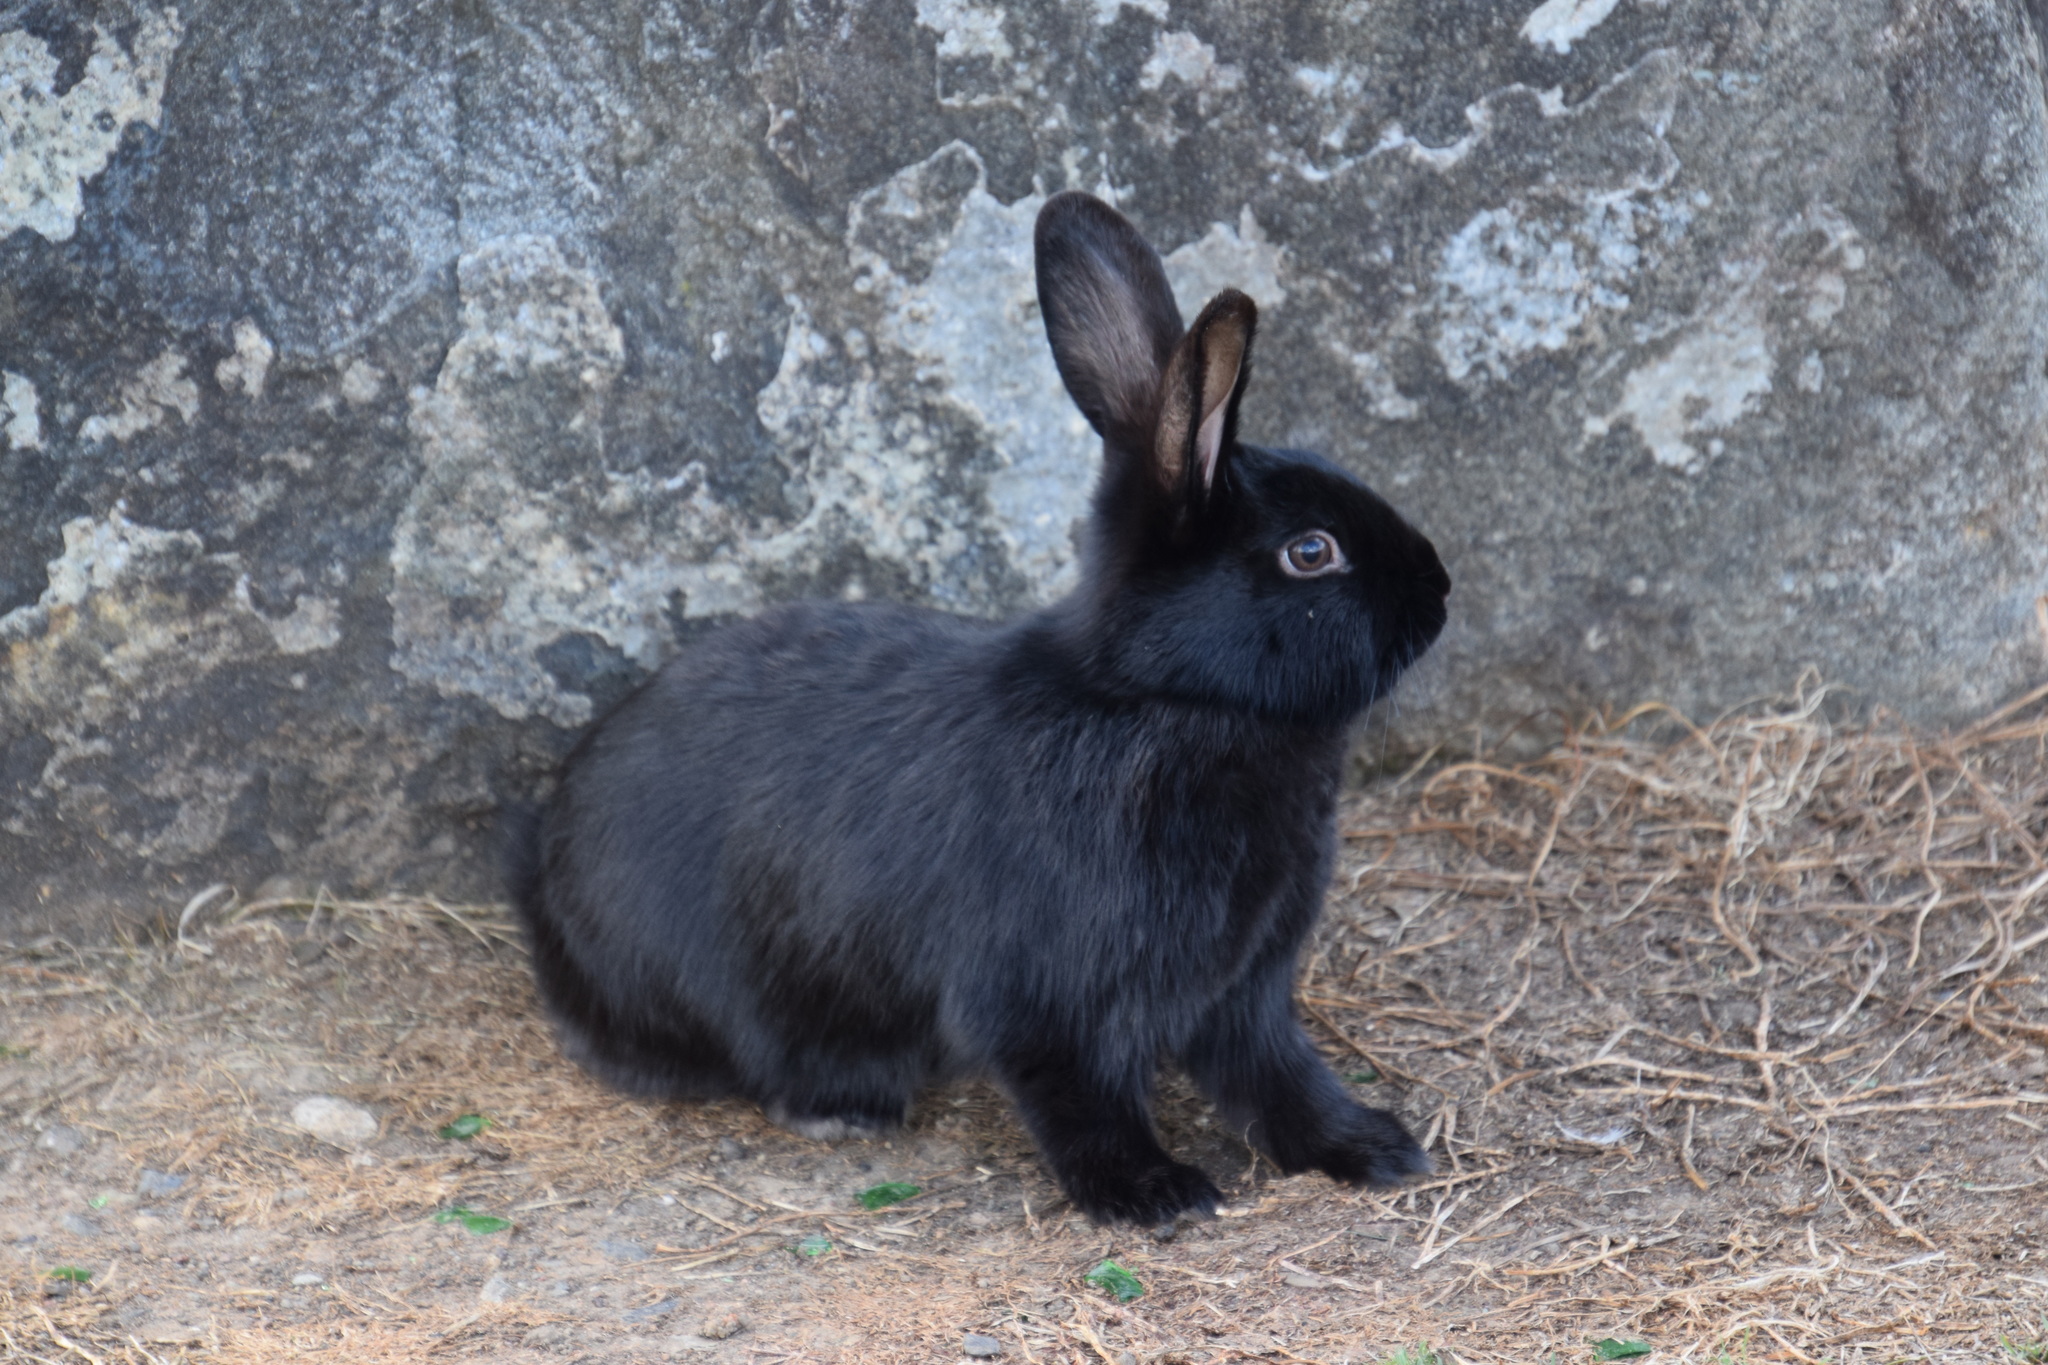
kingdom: Animalia
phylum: Chordata
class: Mammalia
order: Lagomorpha
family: Leporidae
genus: Oryctolagus
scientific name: Oryctolagus cuniculus
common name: European rabbit
